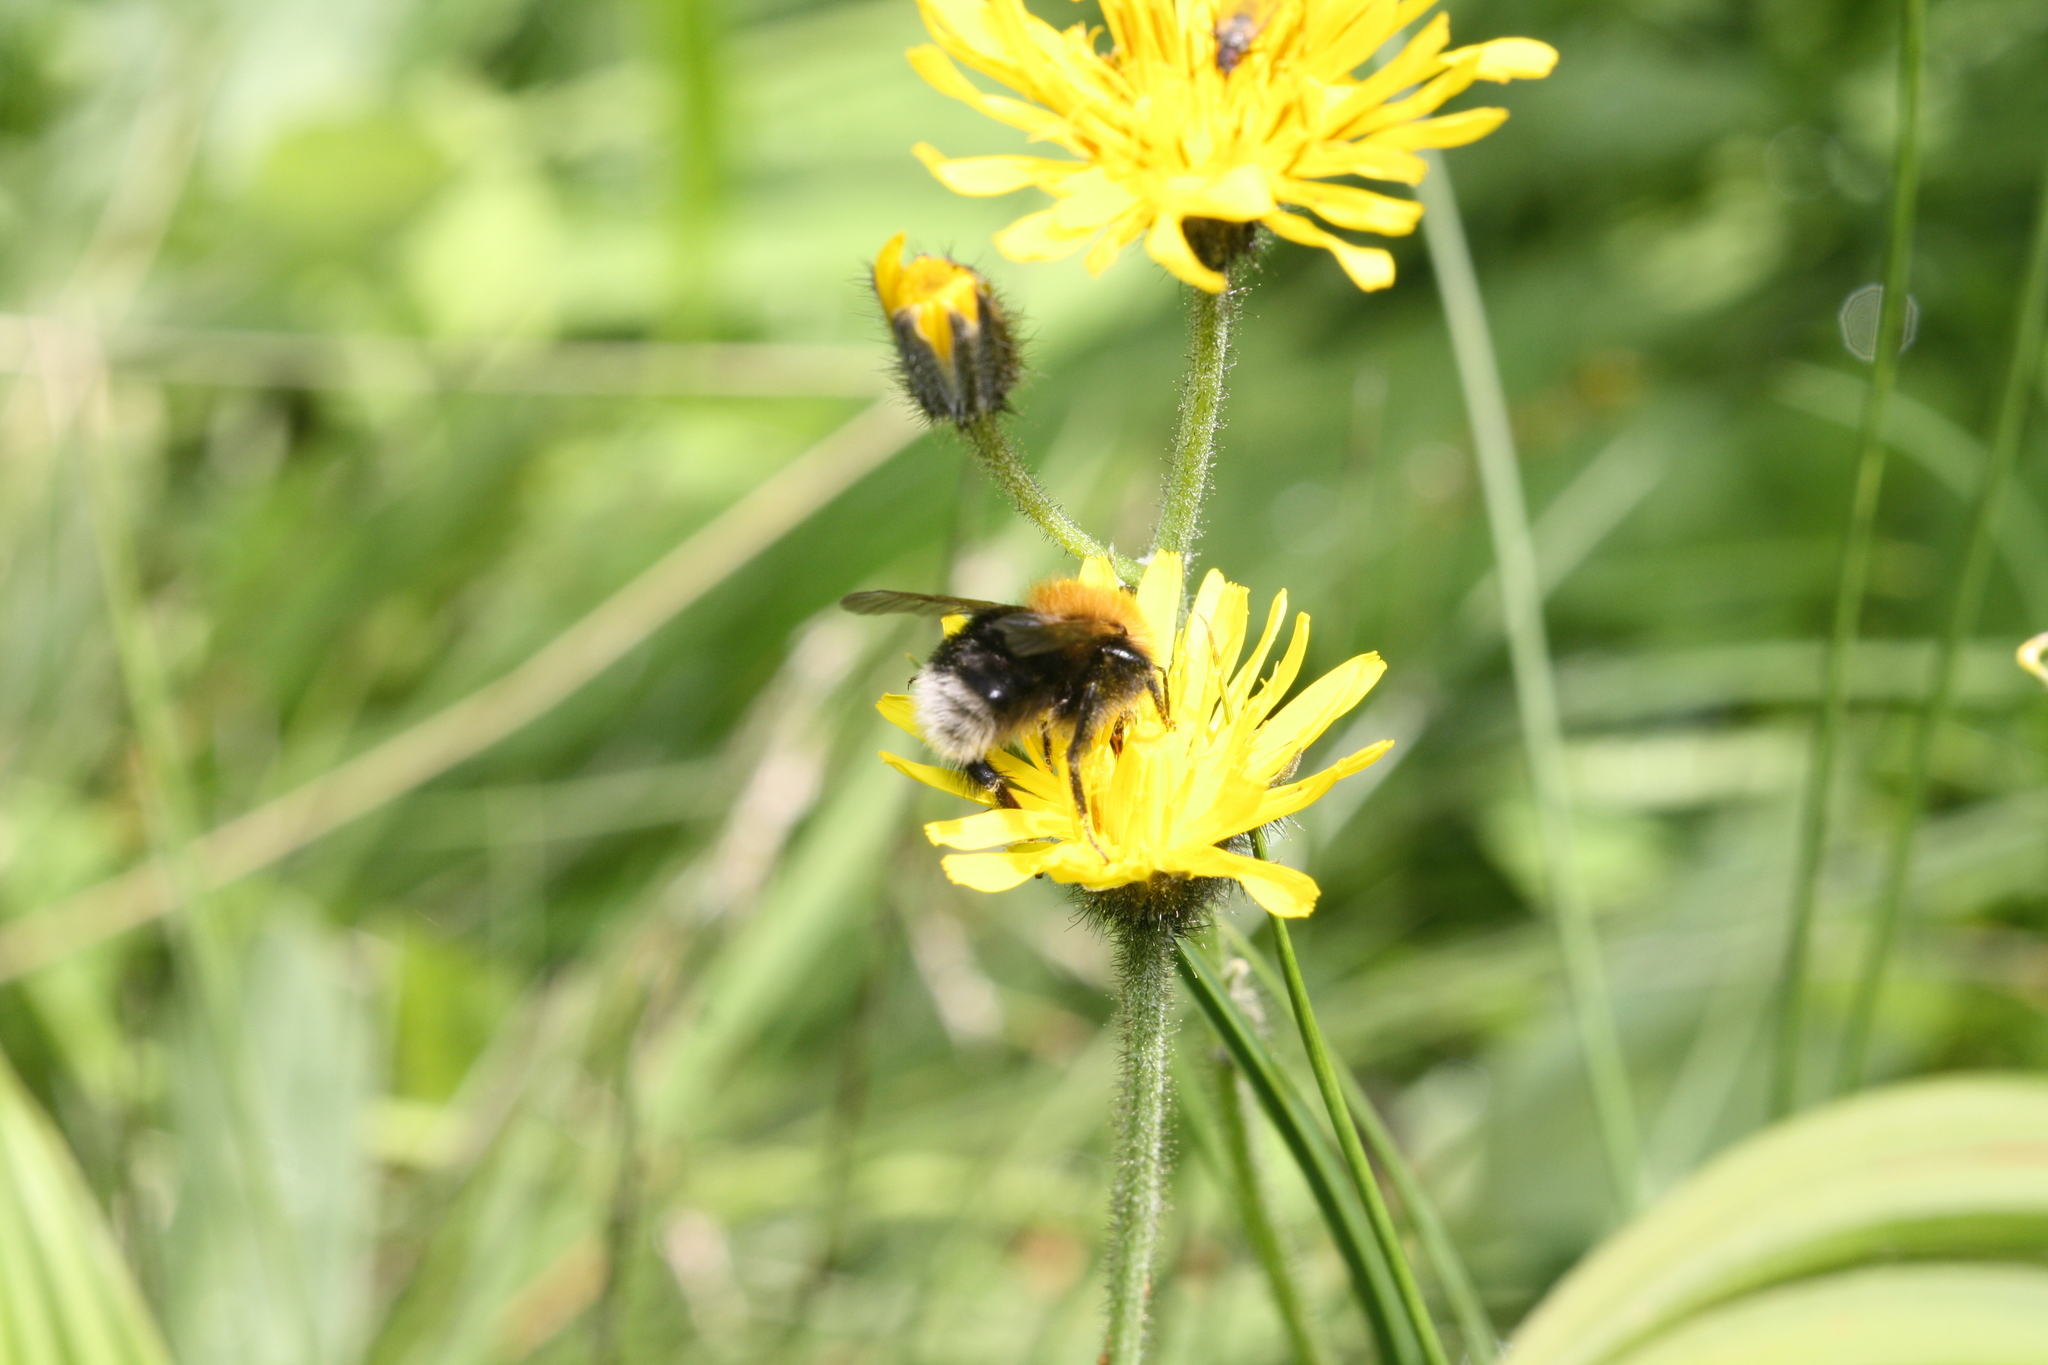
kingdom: Animalia
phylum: Arthropoda
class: Insecta
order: Hymenoptera
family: Apidae
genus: Bombus
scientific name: Bombus hypnorum
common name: New garden bumblebee
